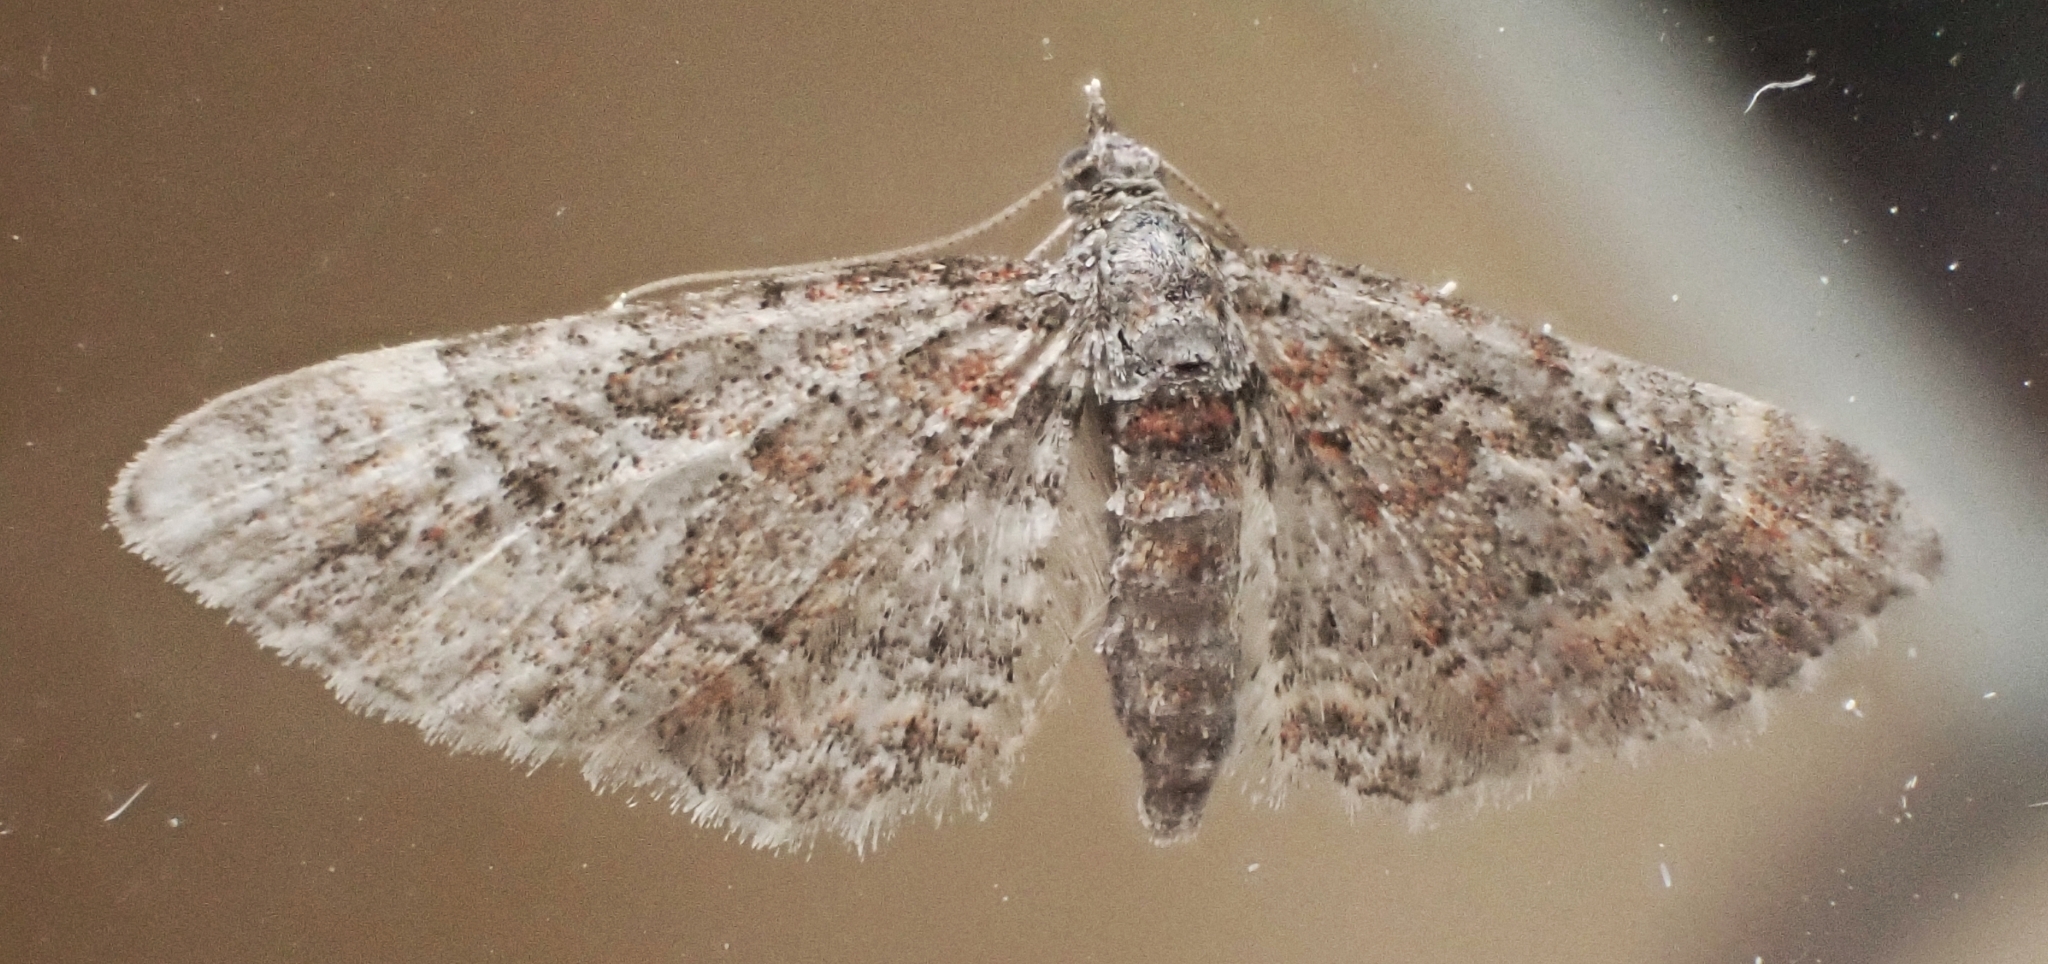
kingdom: Animalia
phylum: Arthropoda
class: Insecta
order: Lepidoptera
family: Geometridae
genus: Gymnoscelis
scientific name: Gymnoscelis rufifasciata
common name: Double-striped pug
